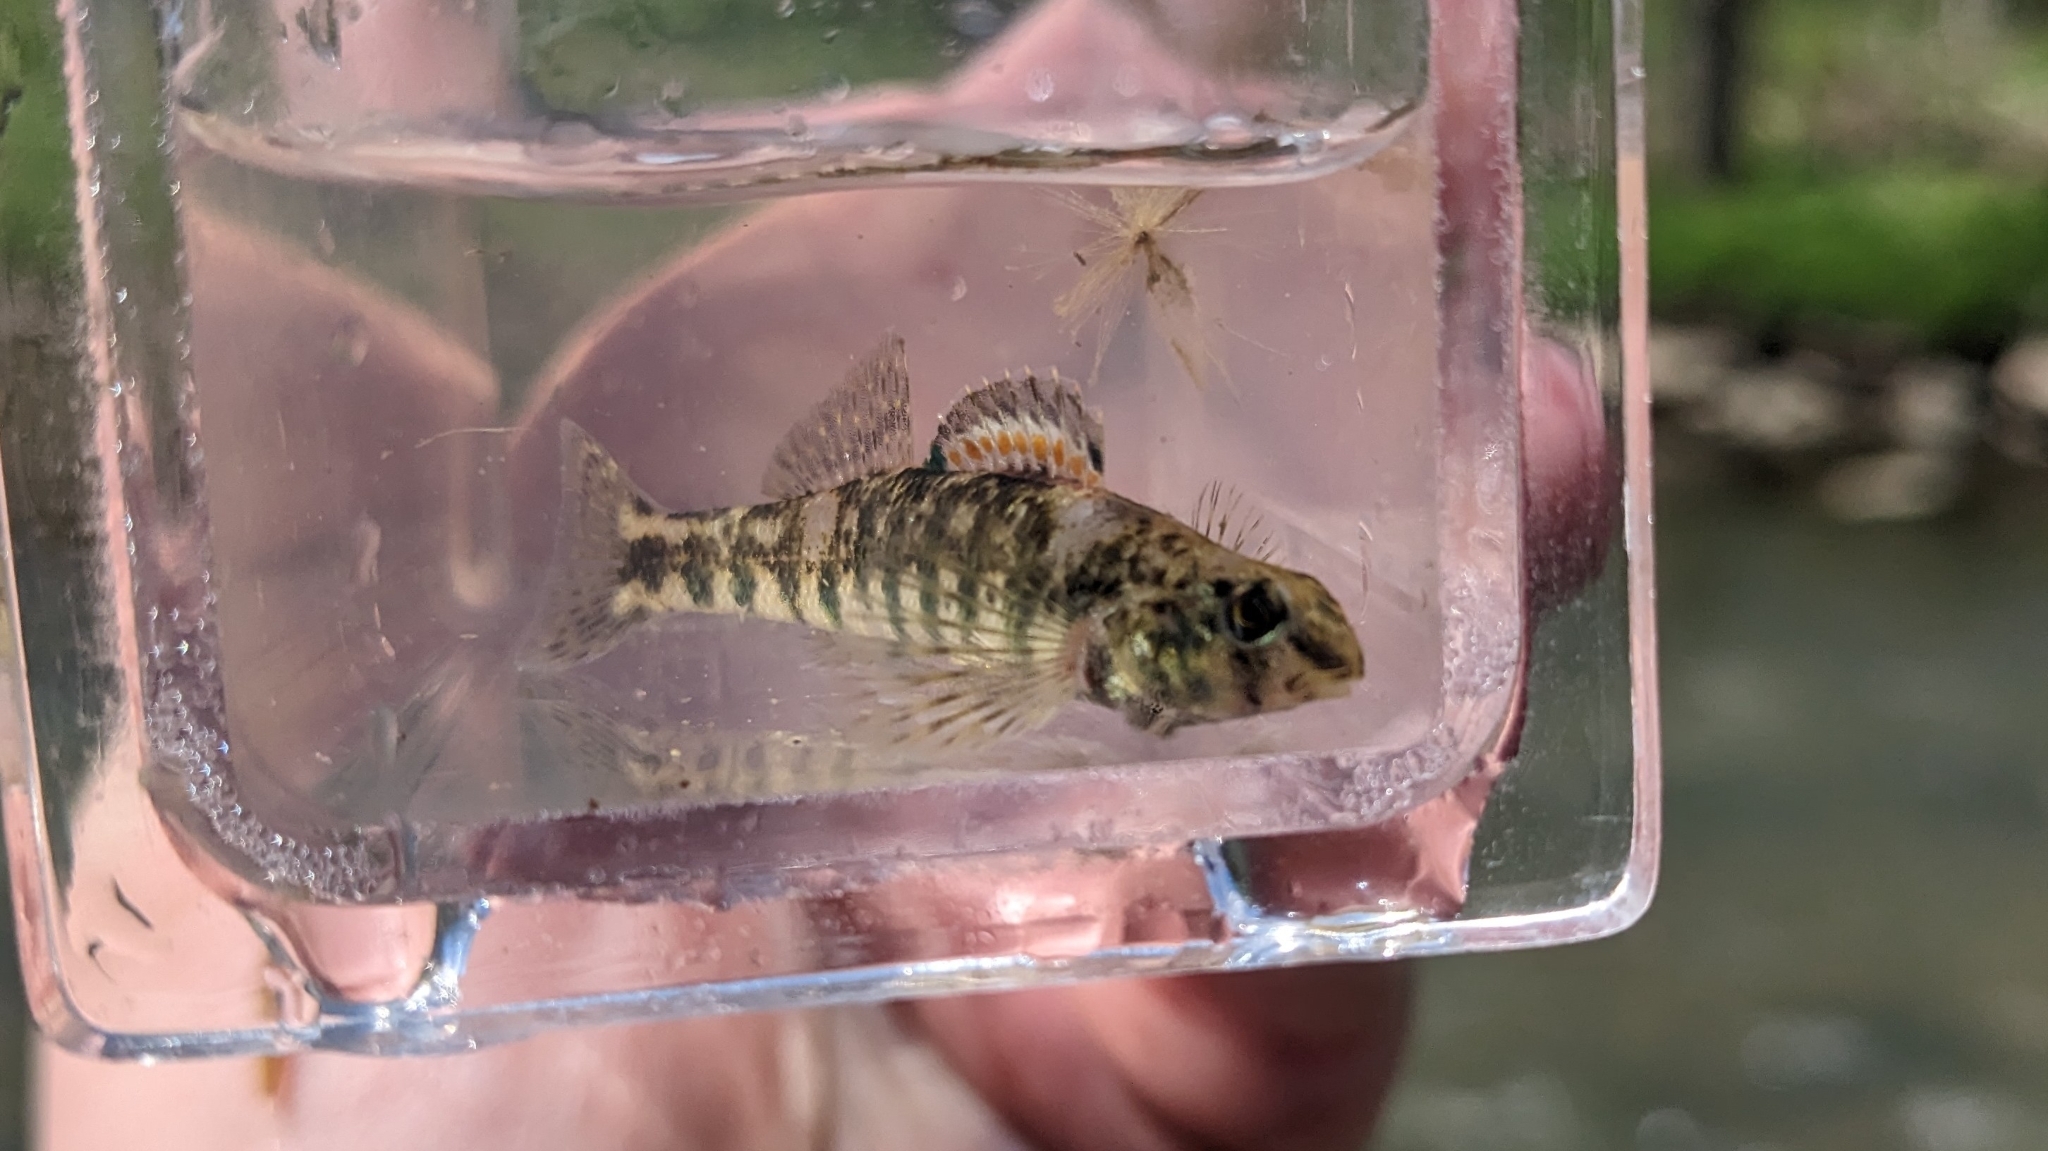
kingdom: Animalia
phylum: Chordata
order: Perciformes
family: Percidae
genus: Etheostoma
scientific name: Etheostoma zonale
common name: Banded darter
